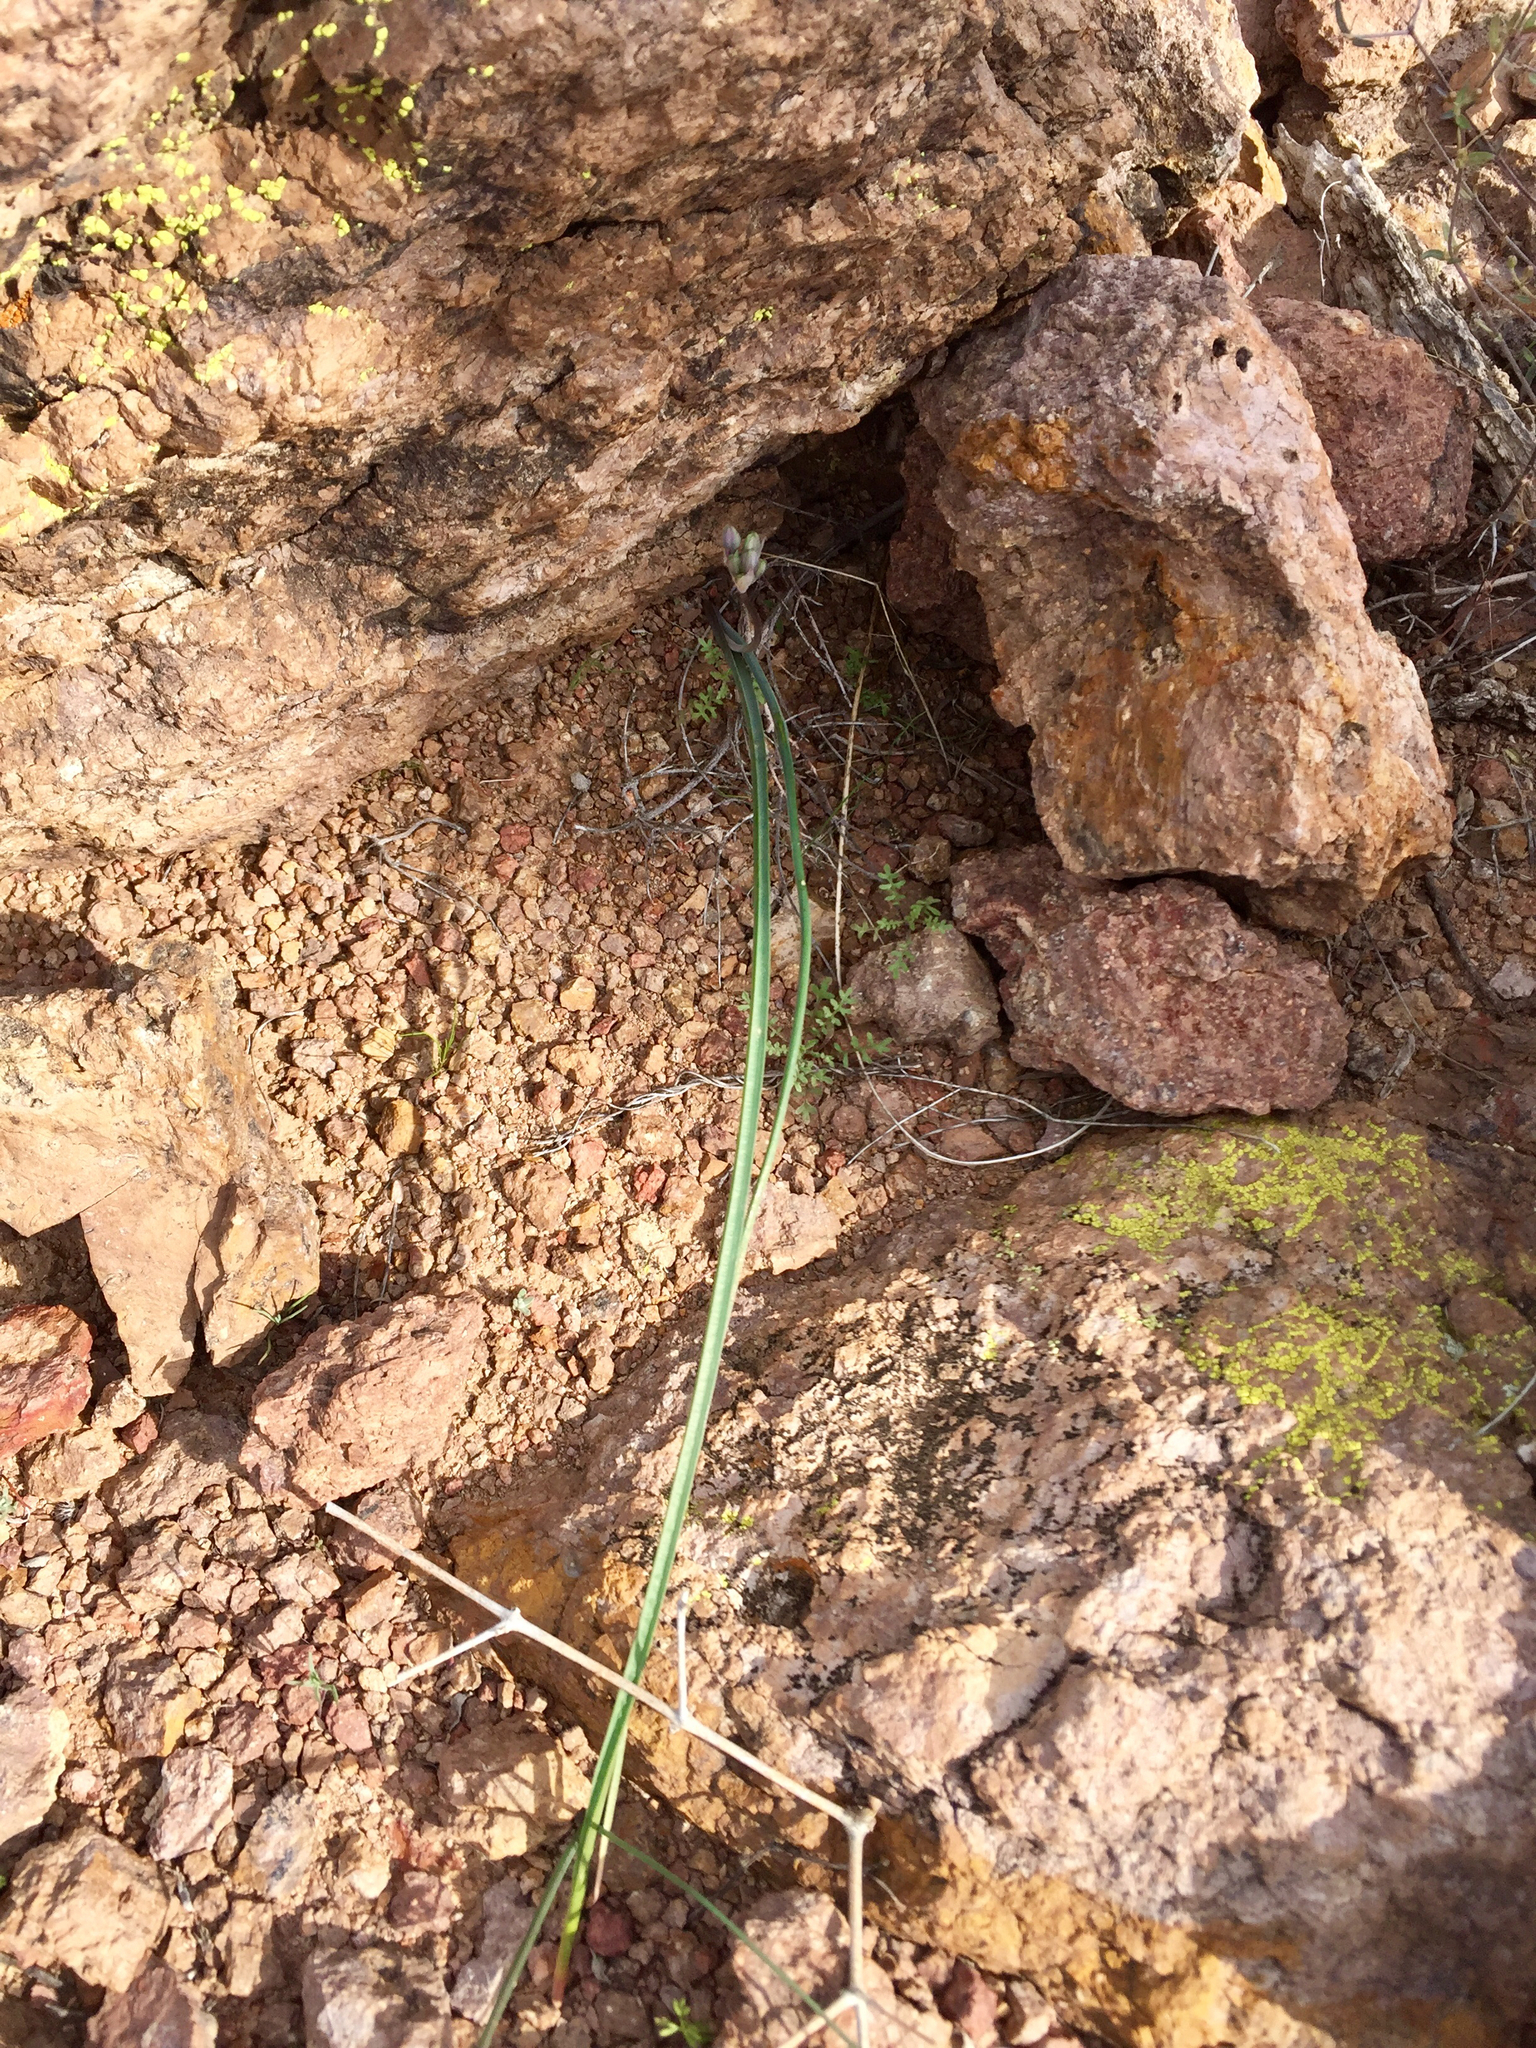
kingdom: Plantae
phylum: Tracheophyta
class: Liliopsida
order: Asparagales
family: Asparagaceae
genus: Dipterostemon
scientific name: Dipterostemon capitatus
